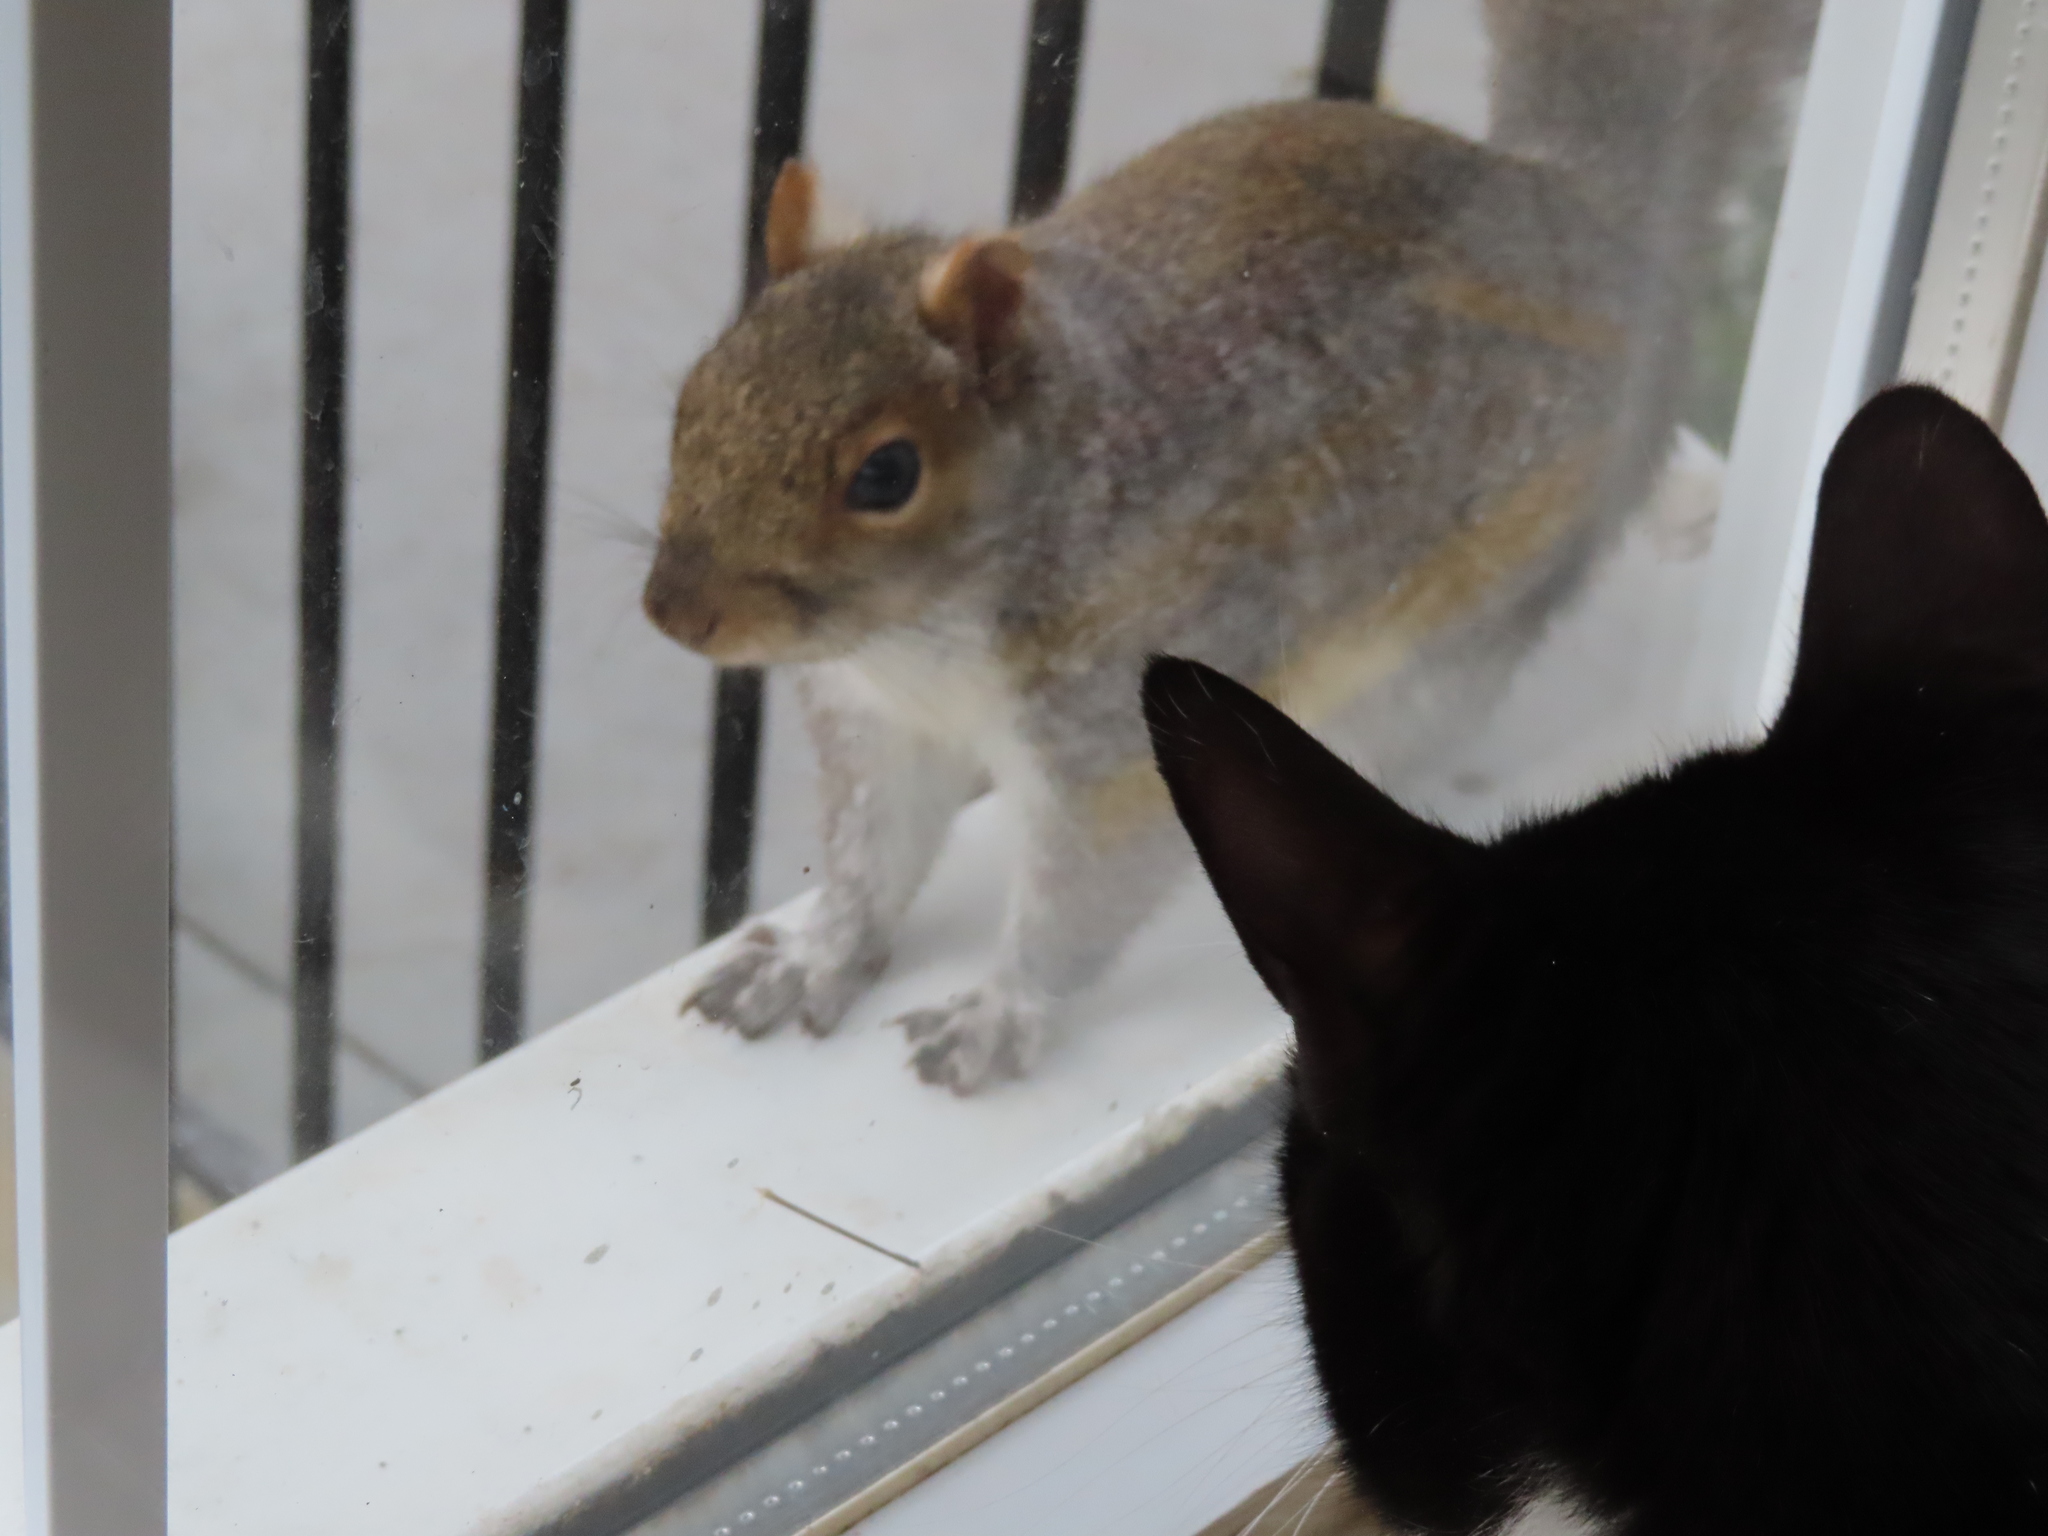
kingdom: Animalia
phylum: Chordata
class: Mammalia
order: Rodentia
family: Sciuridae
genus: Sciurus
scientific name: Sciurus carolinensis
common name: Eastern gray squirrel
